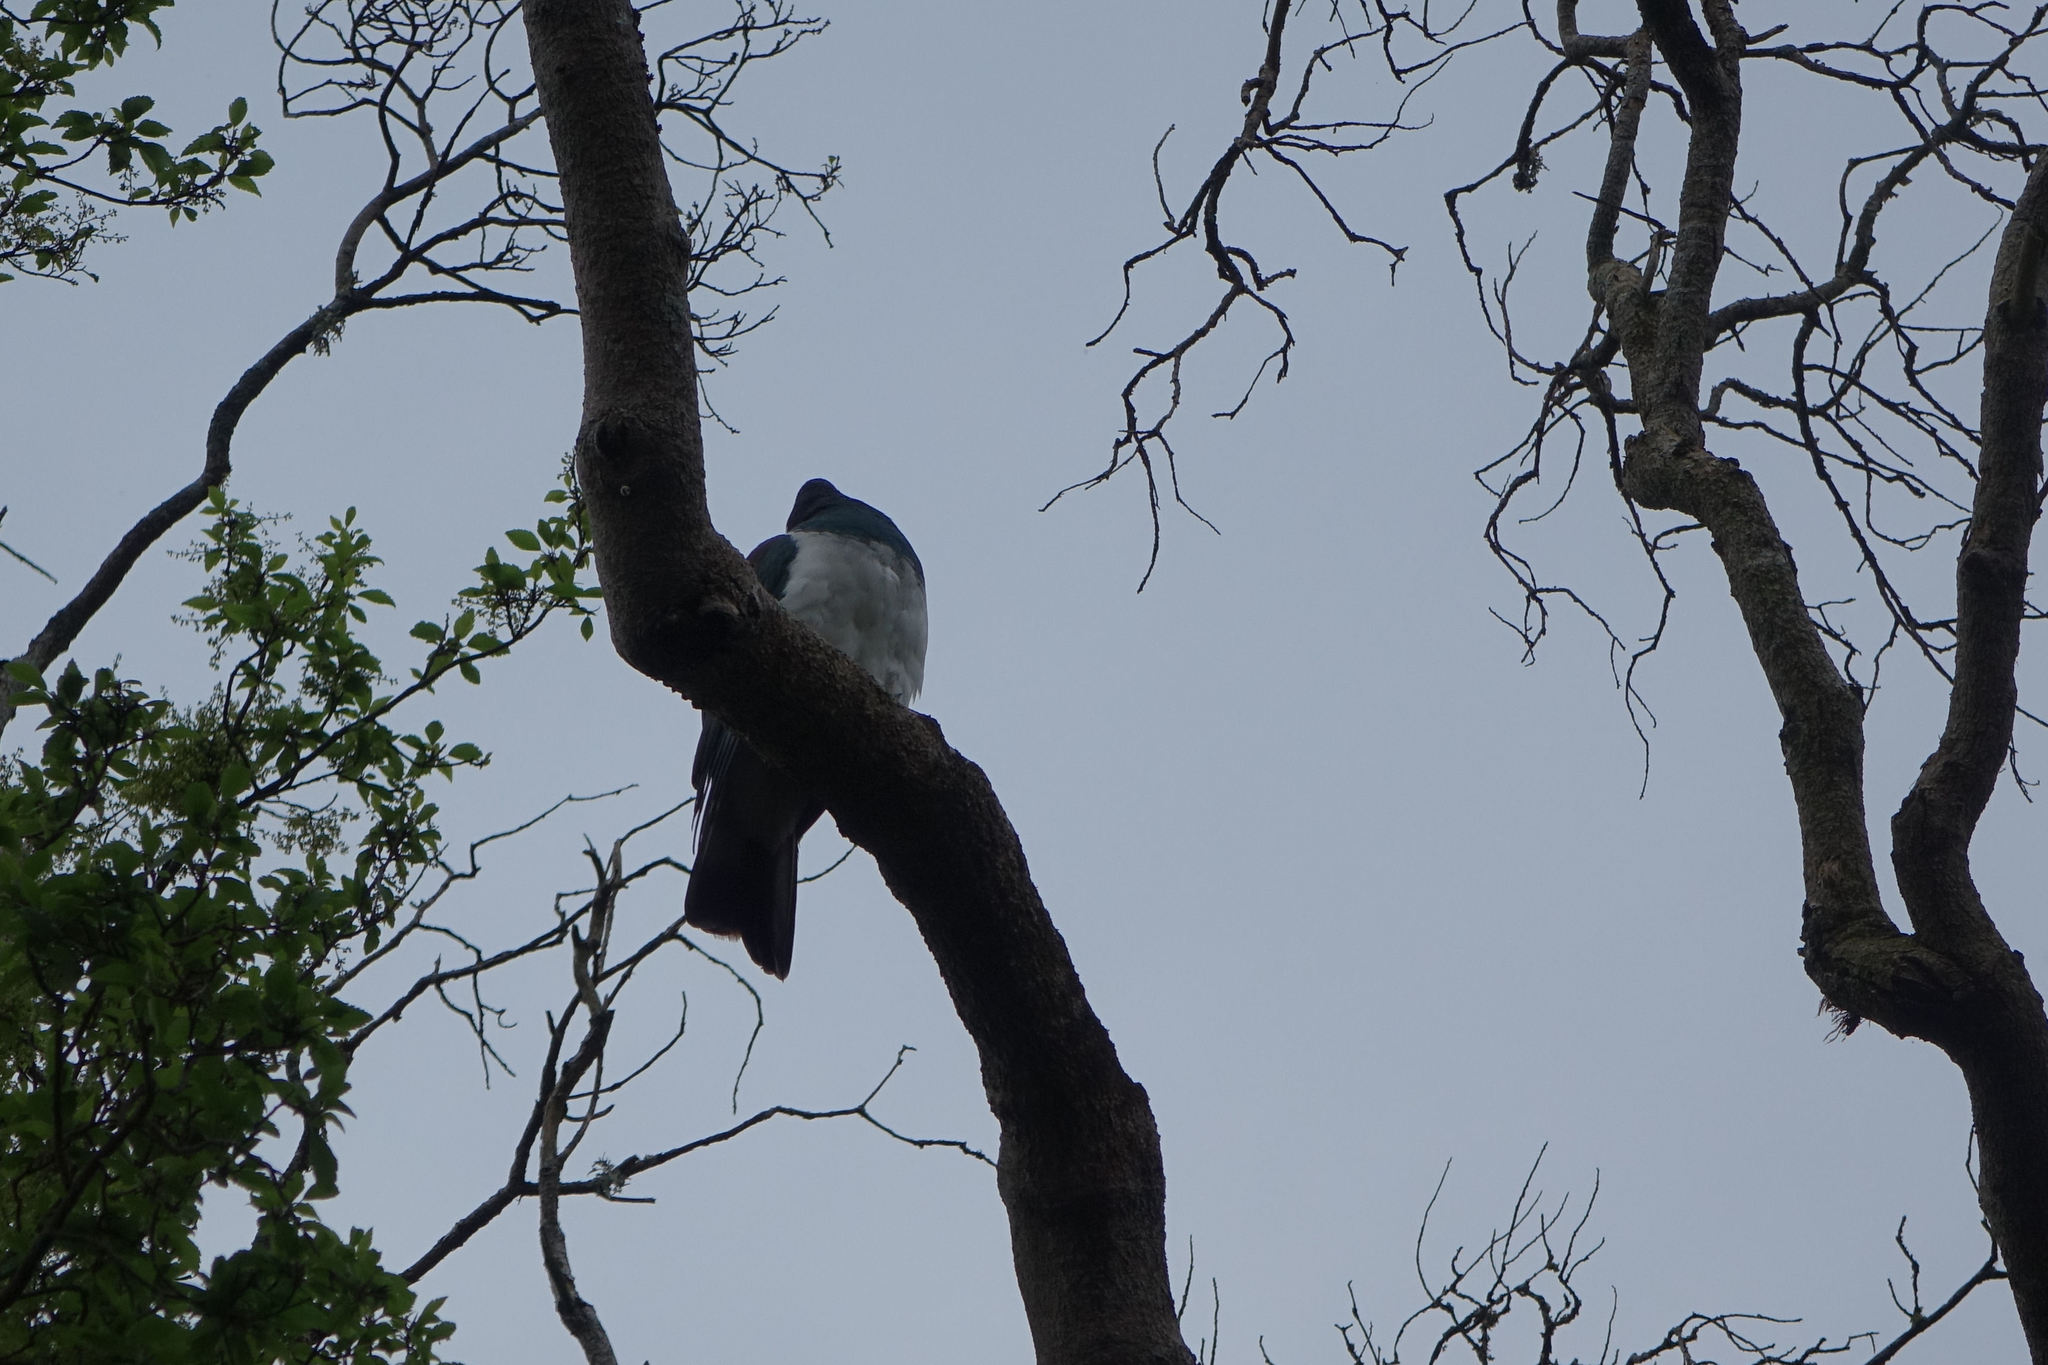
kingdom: Animalia
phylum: Chordata
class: Aves
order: Columbiformes
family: Columbidae
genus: Hemiphaga
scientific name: Hemiphaga novaeseelandiae
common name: New zealand pigeon
